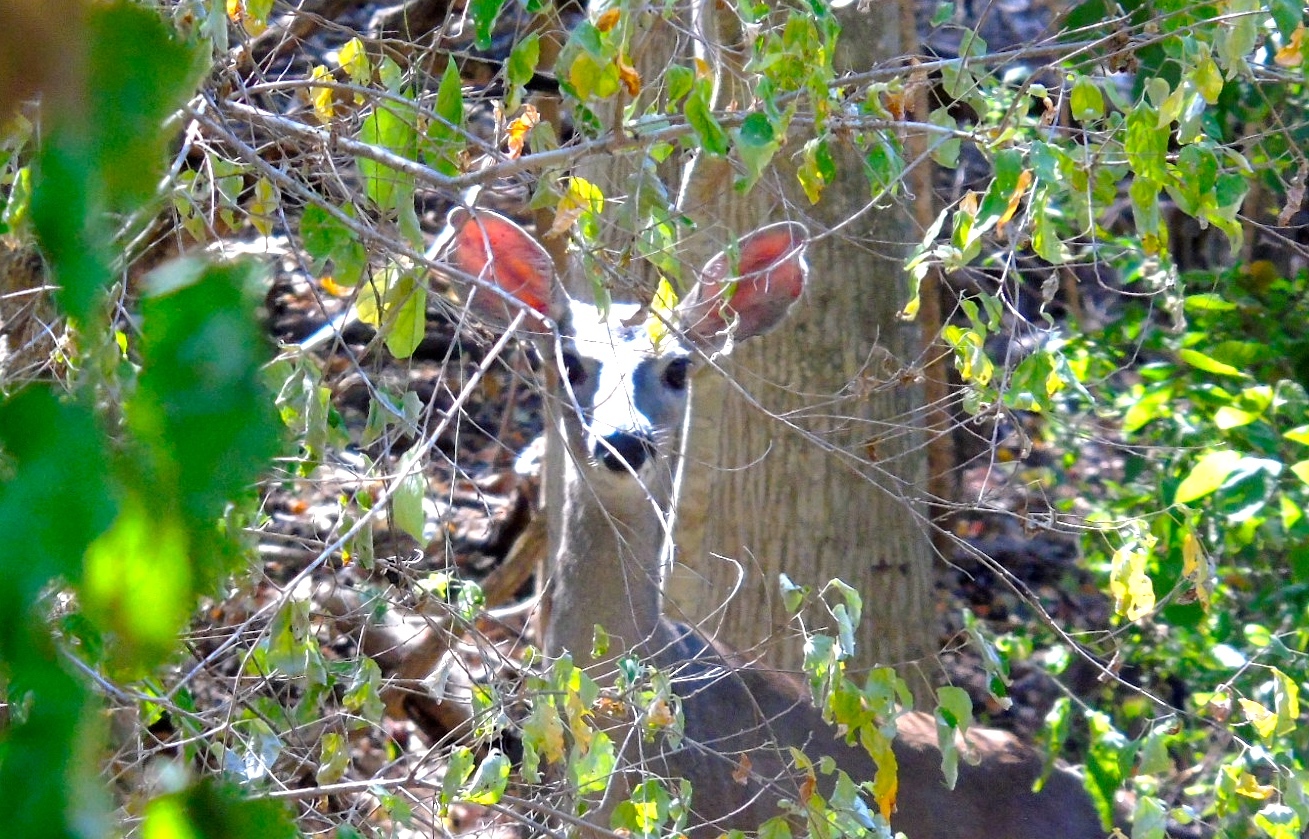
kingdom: Animalia
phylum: Chordata
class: Mammalia
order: Artiodactyla
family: Cervidae
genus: Odocoileus
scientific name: Odocoileus virginianus
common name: White-tailed deer
